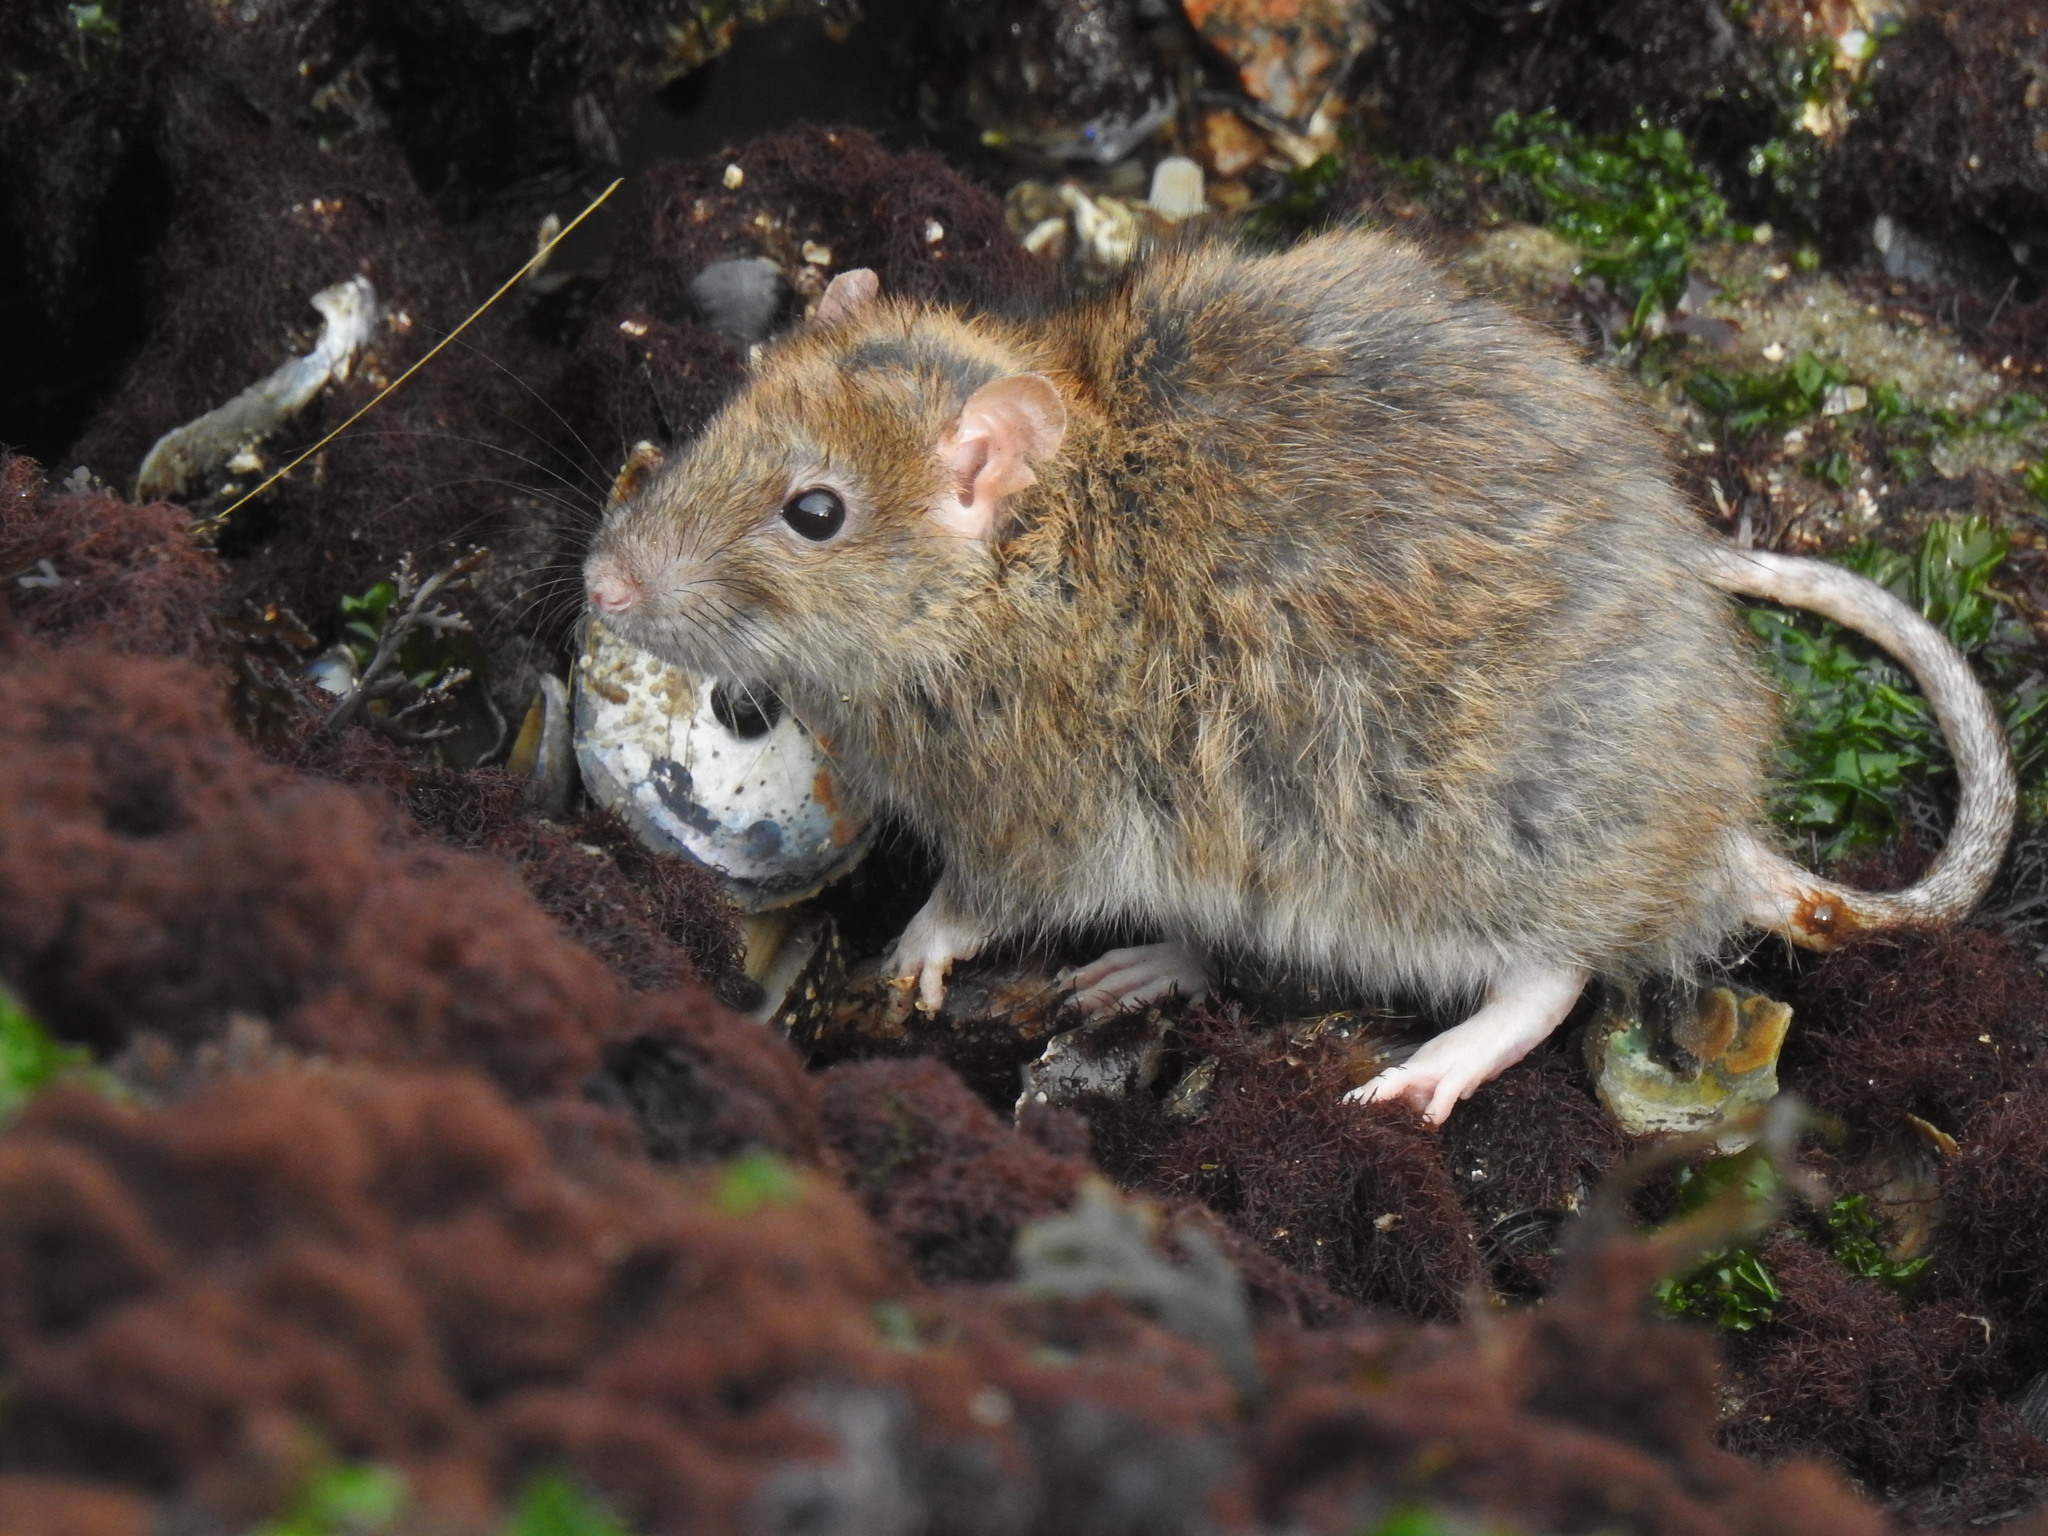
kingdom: Animalia
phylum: Chordata
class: Mammalia
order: Rodentia
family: Muridae
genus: Rattus
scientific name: Rattus norvegicus
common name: Brown rat
